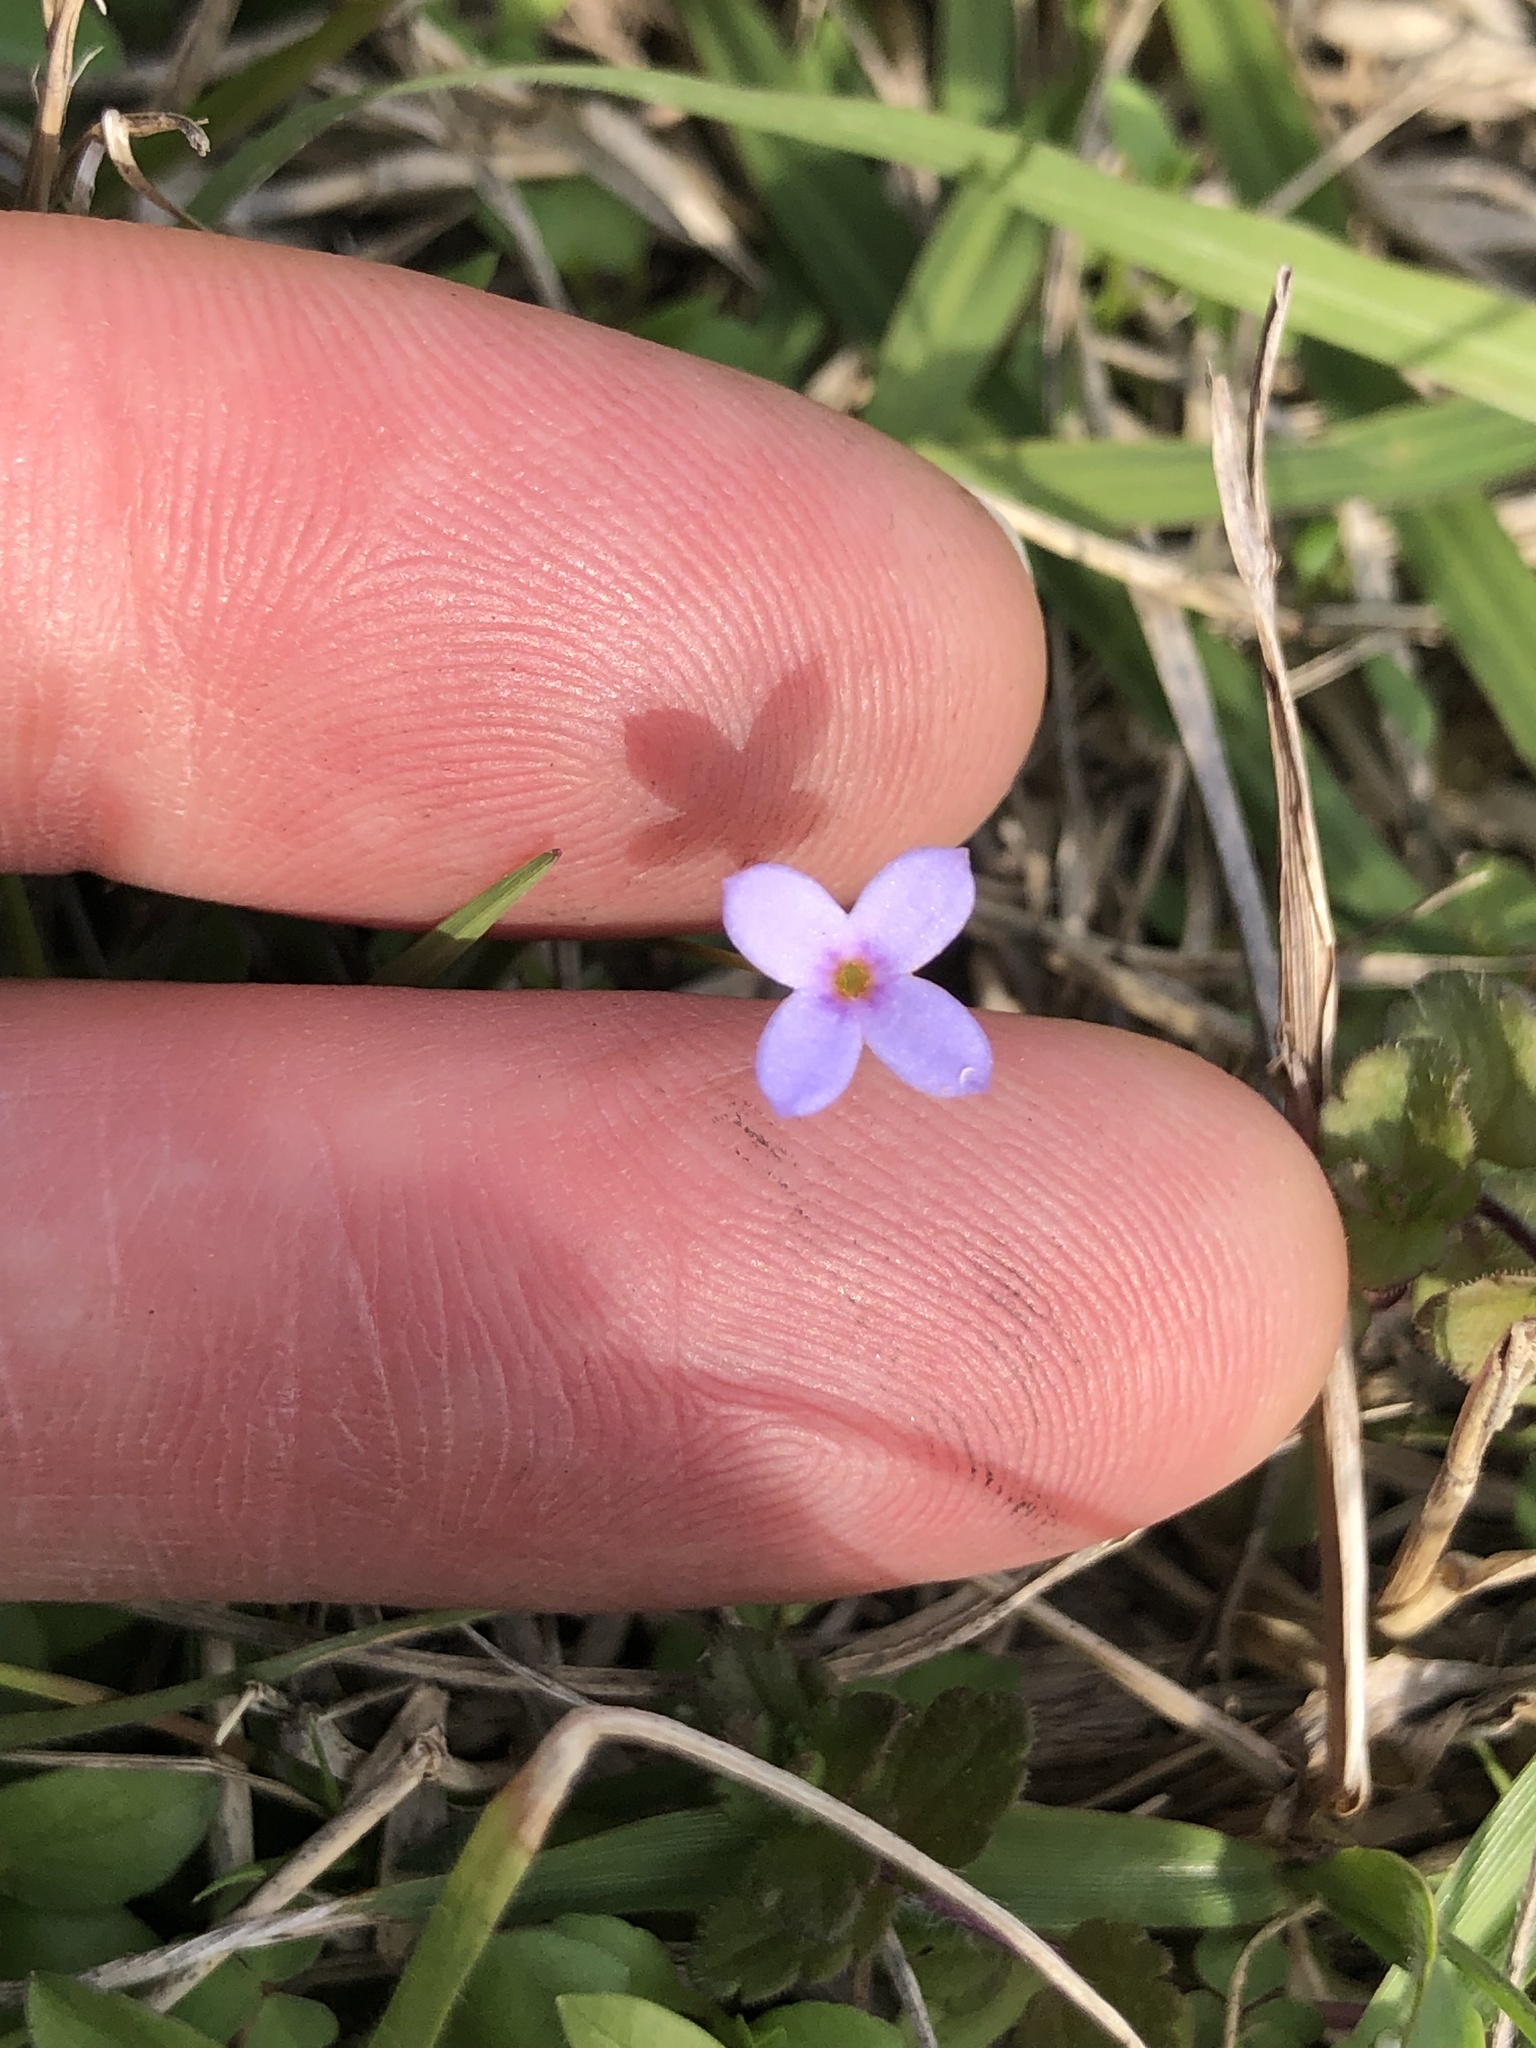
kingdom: Plantae
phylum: Tracheophyta
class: Magnoliopsida
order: Gentianales
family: Rubiaceae
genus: Houstonia
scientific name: Houstonia pusilla
